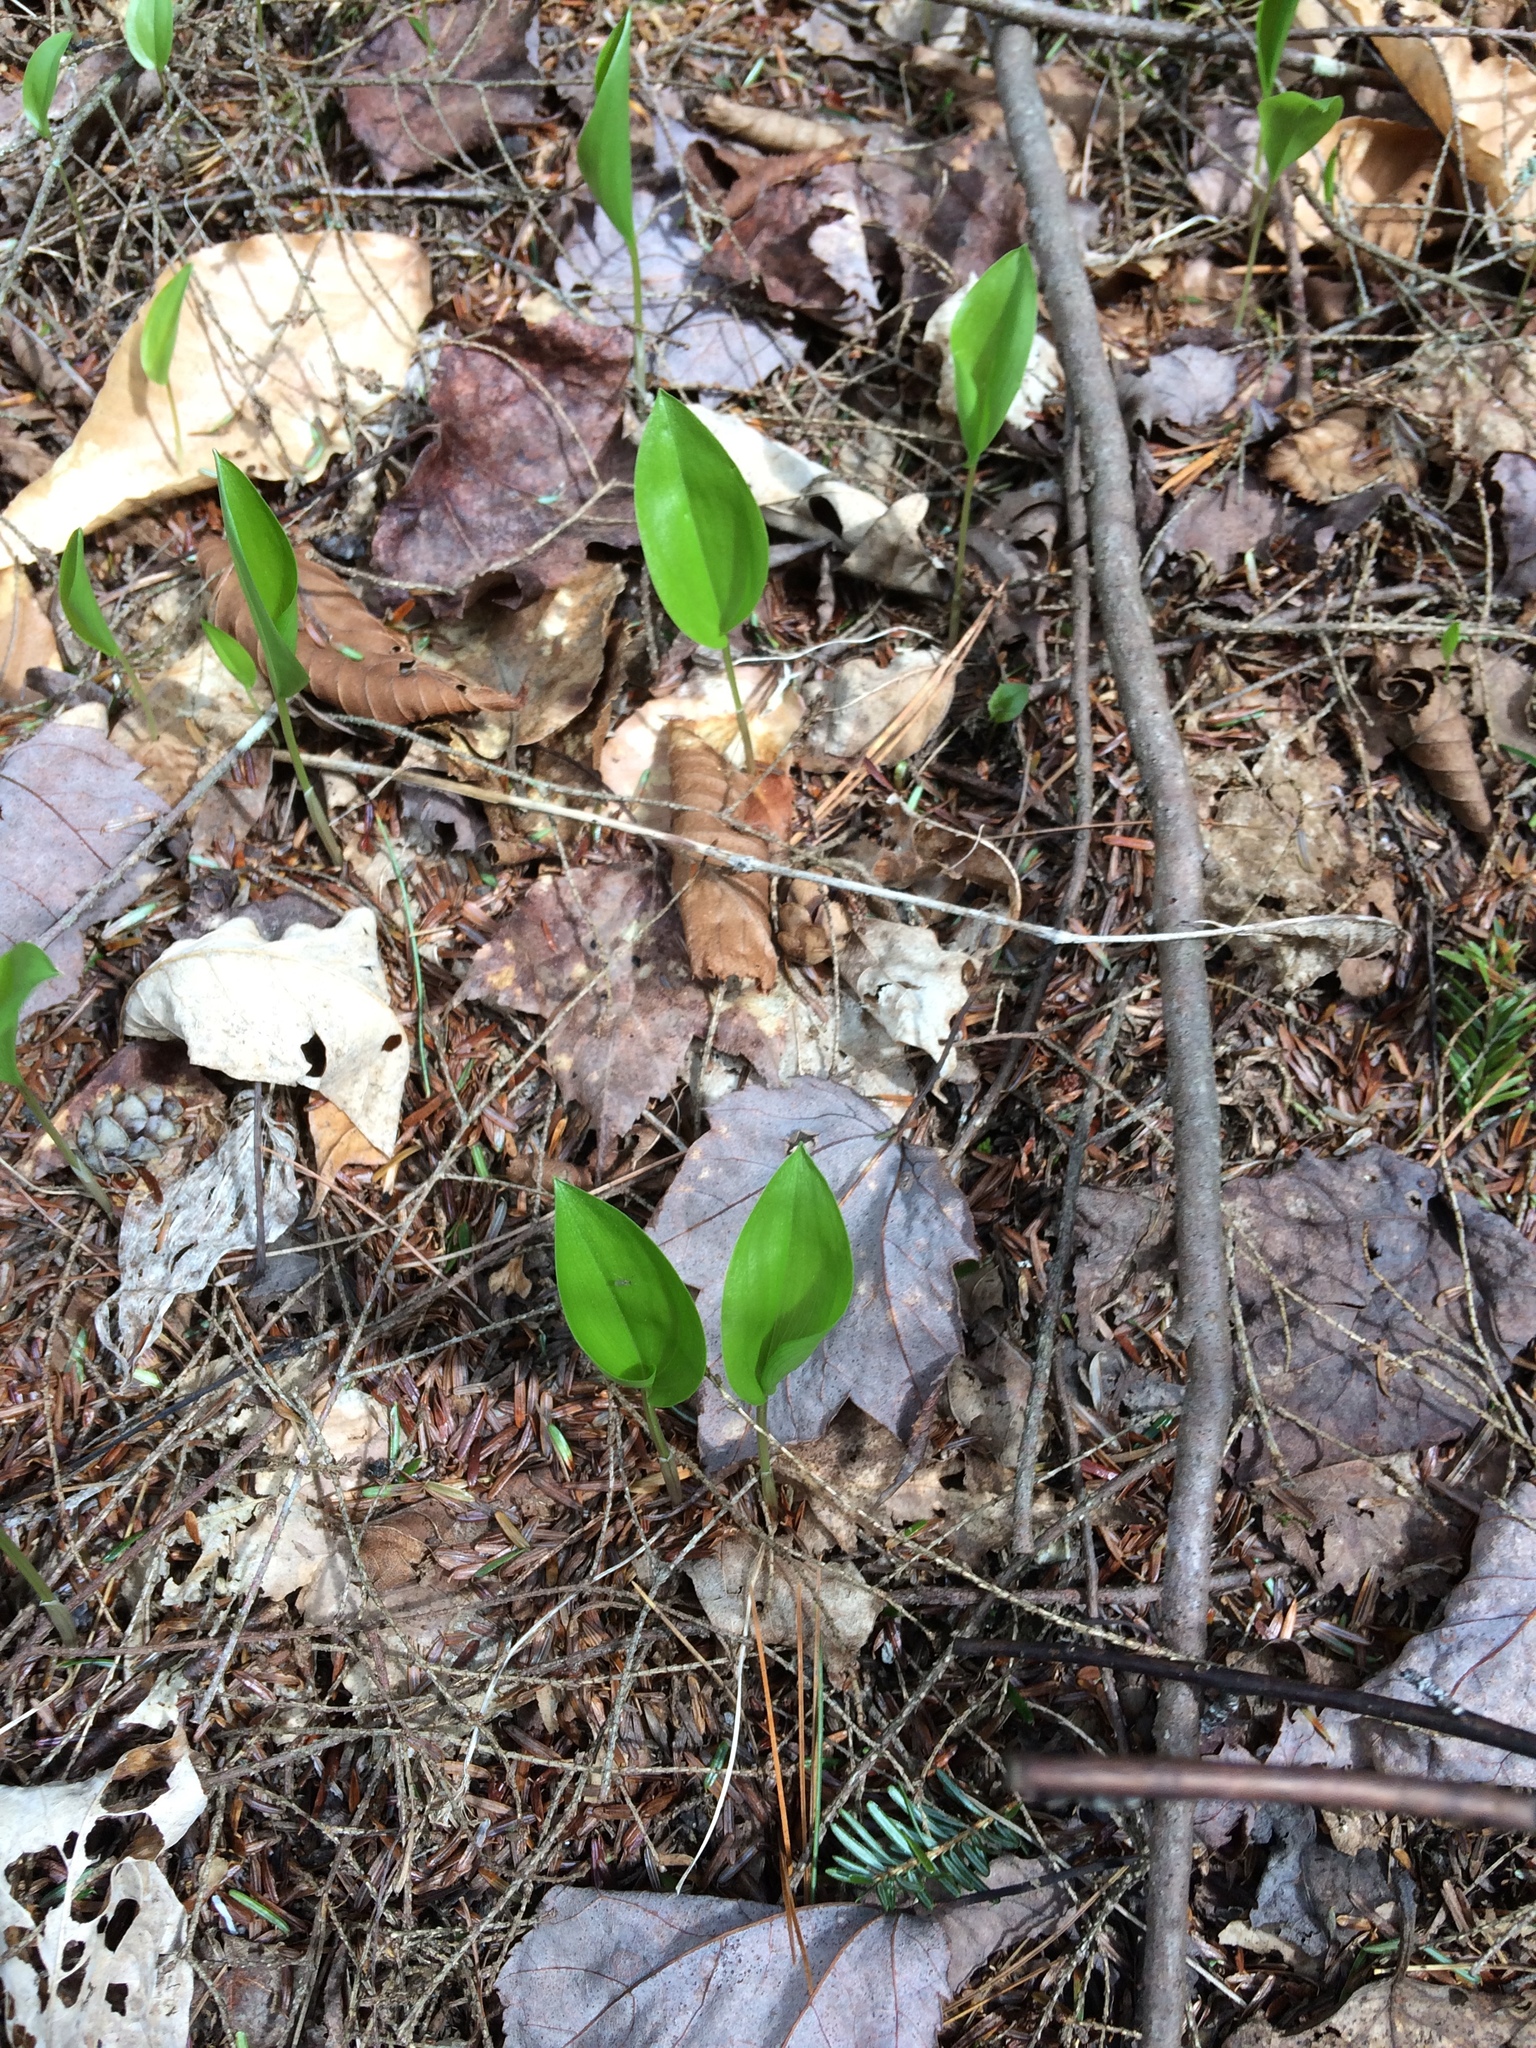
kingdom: Plantae
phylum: Tracheophyta
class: Liliopsida
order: Asparagales
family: Asparagaceae
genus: Maianthemum
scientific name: Maianthemum canadense
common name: False lily-of-the-valley
